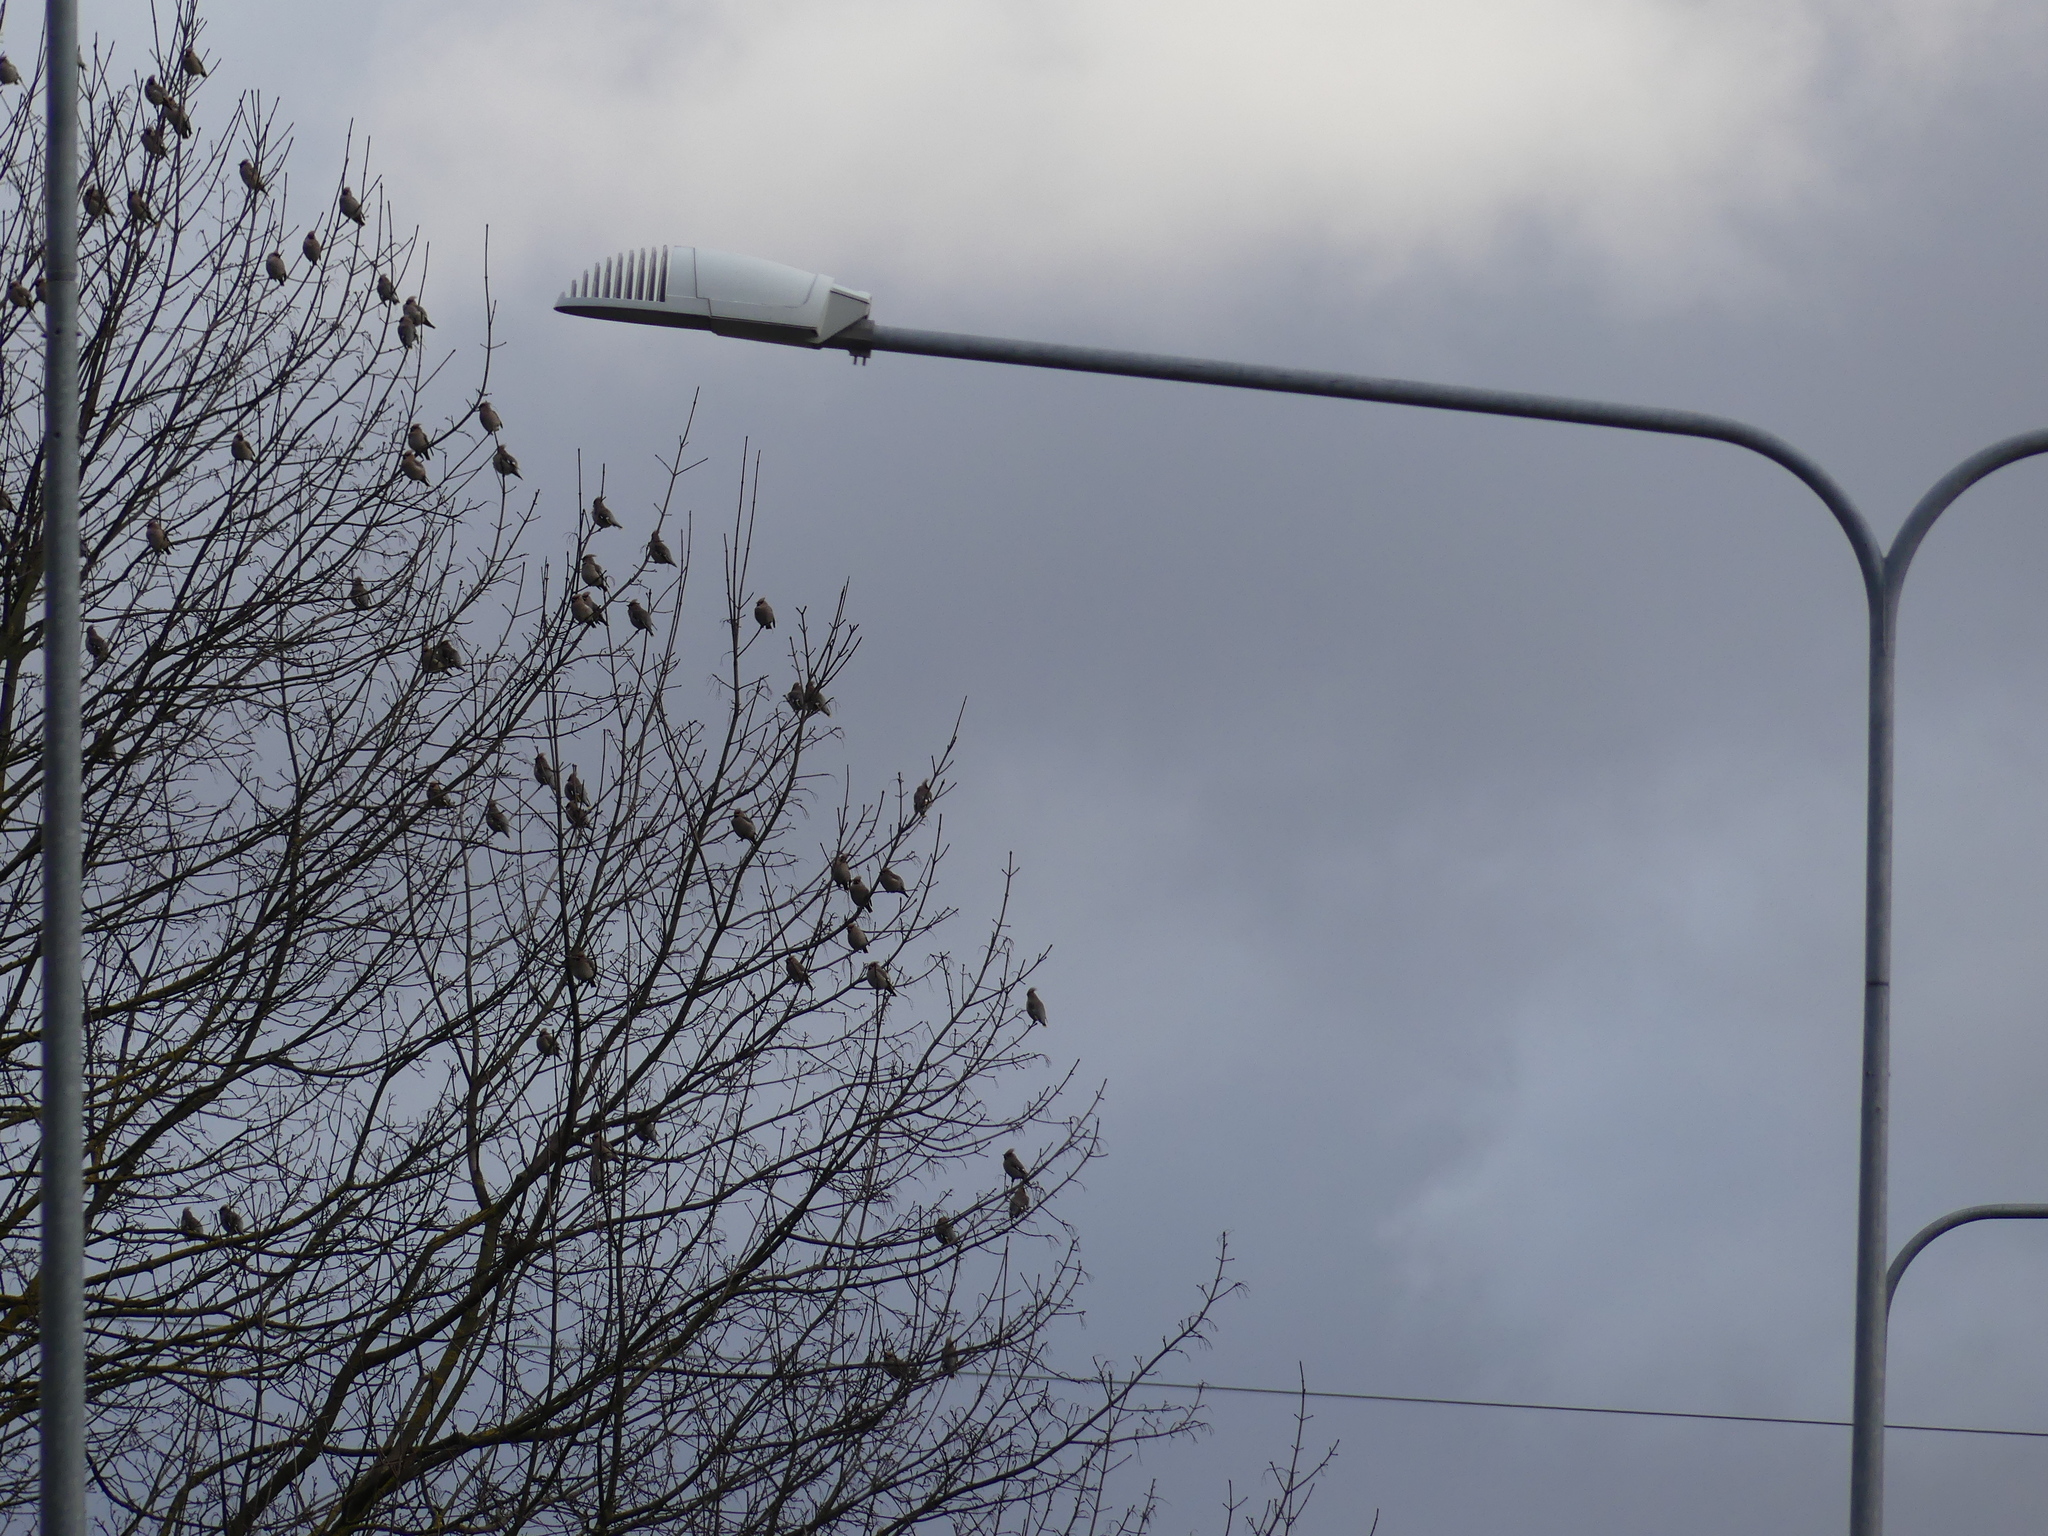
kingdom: Animalia
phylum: Chordata
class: Aves
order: Passeriformes
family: Bombycillidae
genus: Bombycilla
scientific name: Bombycilla garrulus
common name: Bohemian waxwing
